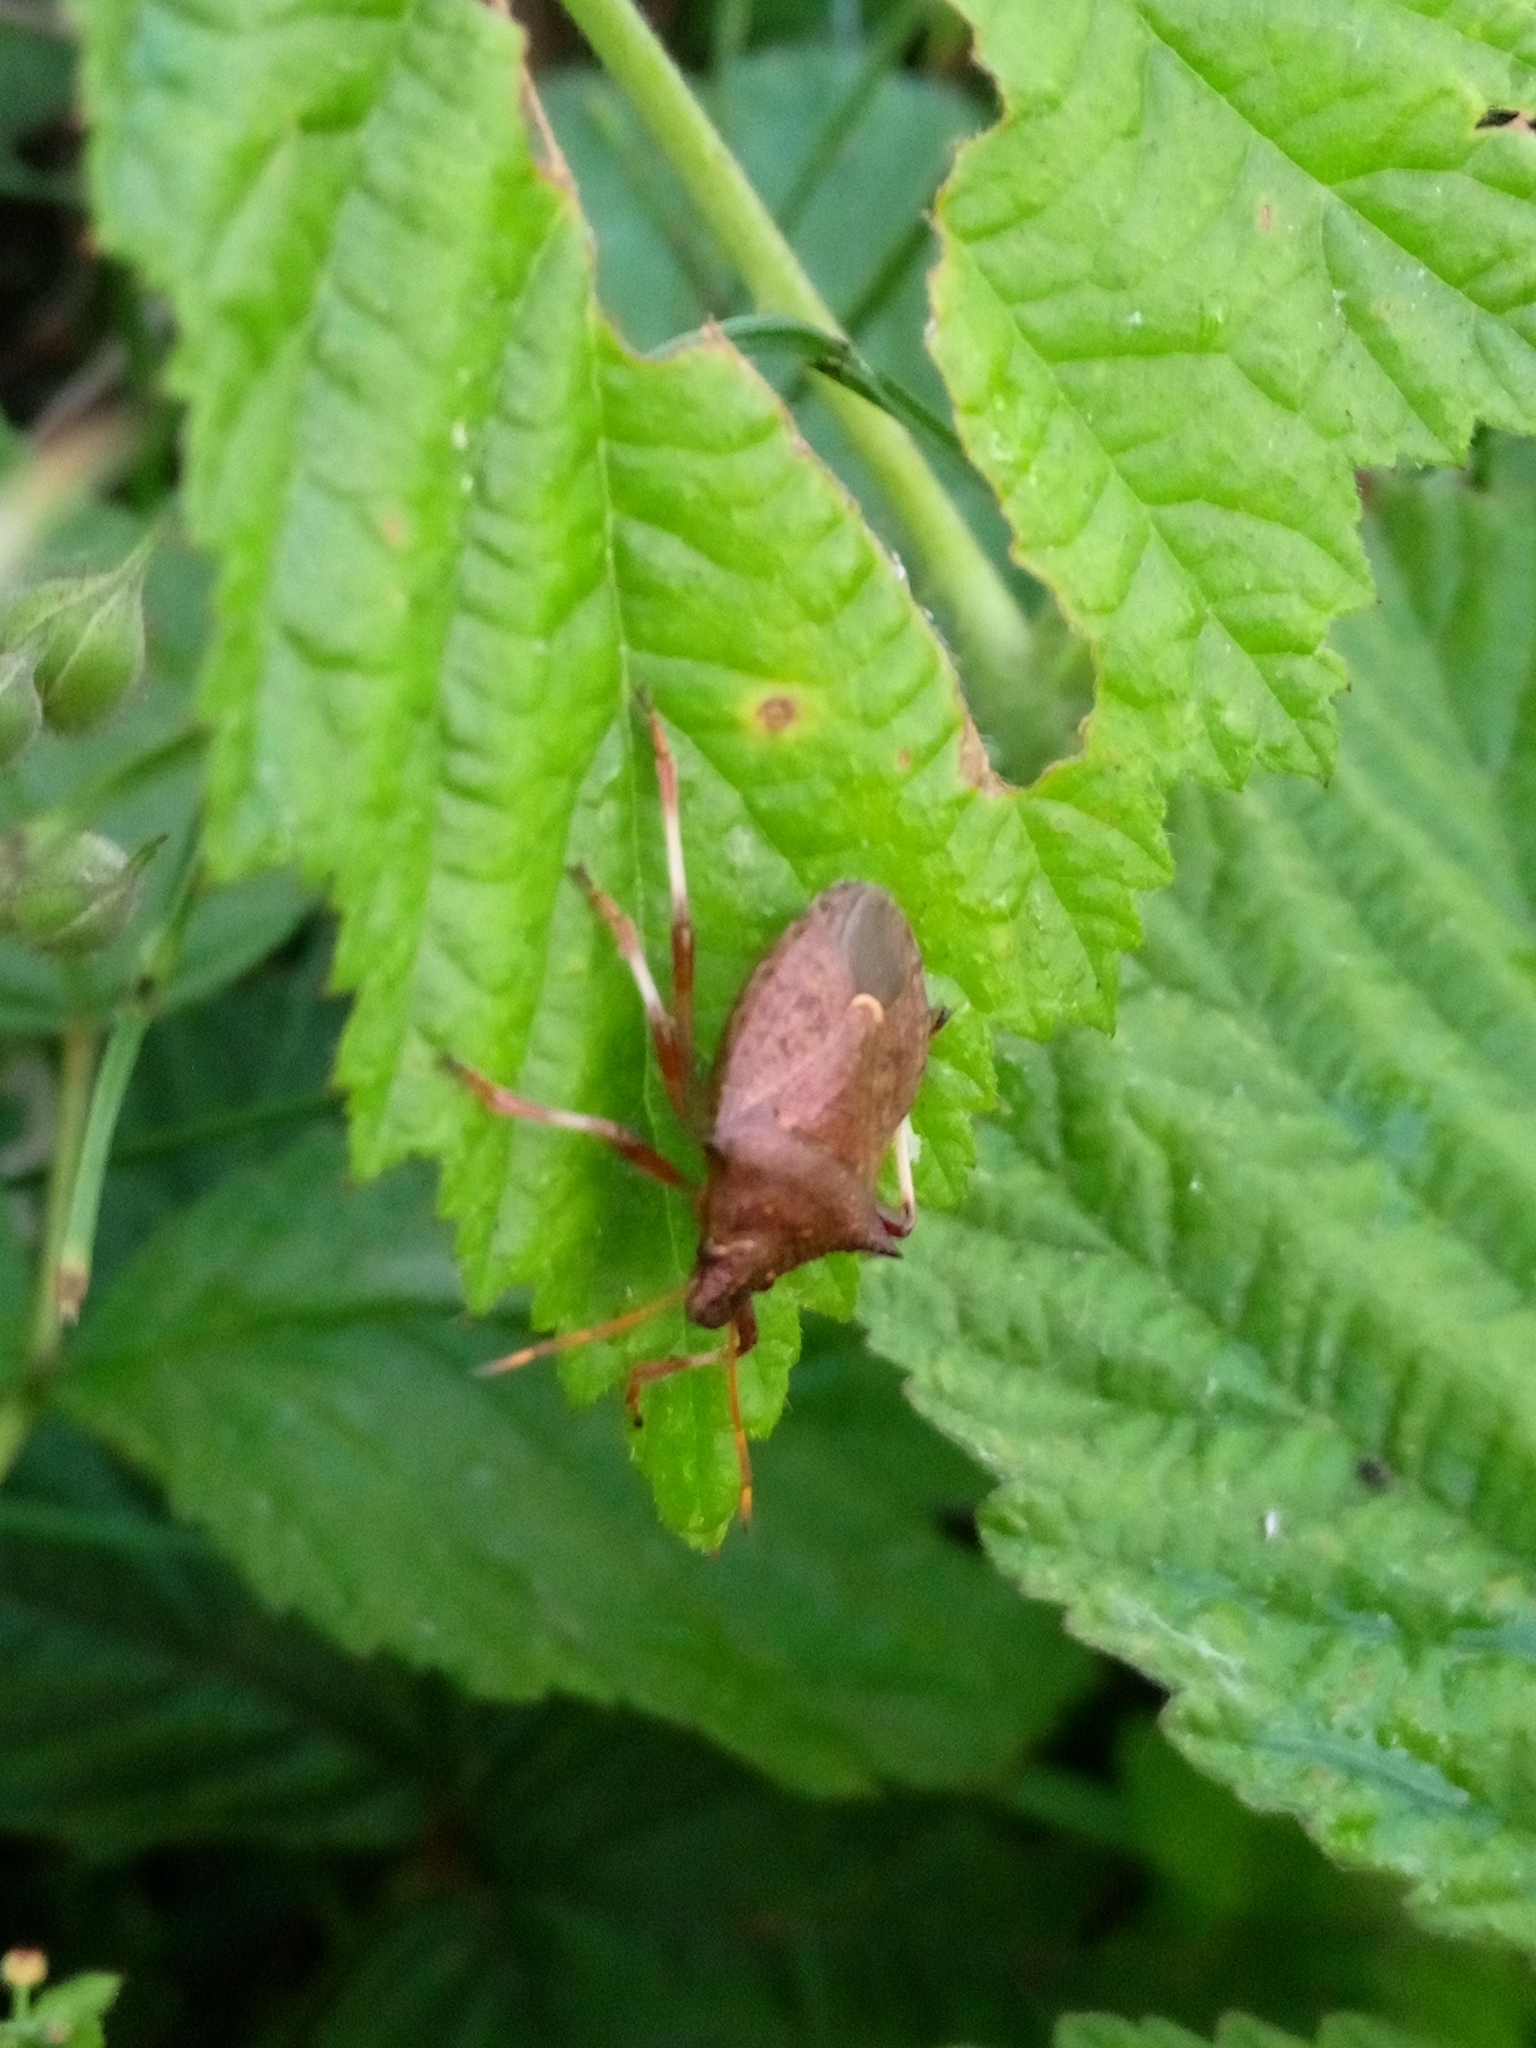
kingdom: Animalia
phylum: Arthropoda
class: Insecta
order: Hemiptera
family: Pentatomidae
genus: Picromerus
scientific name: Picromerus bidens
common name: Spiked shieldbug
